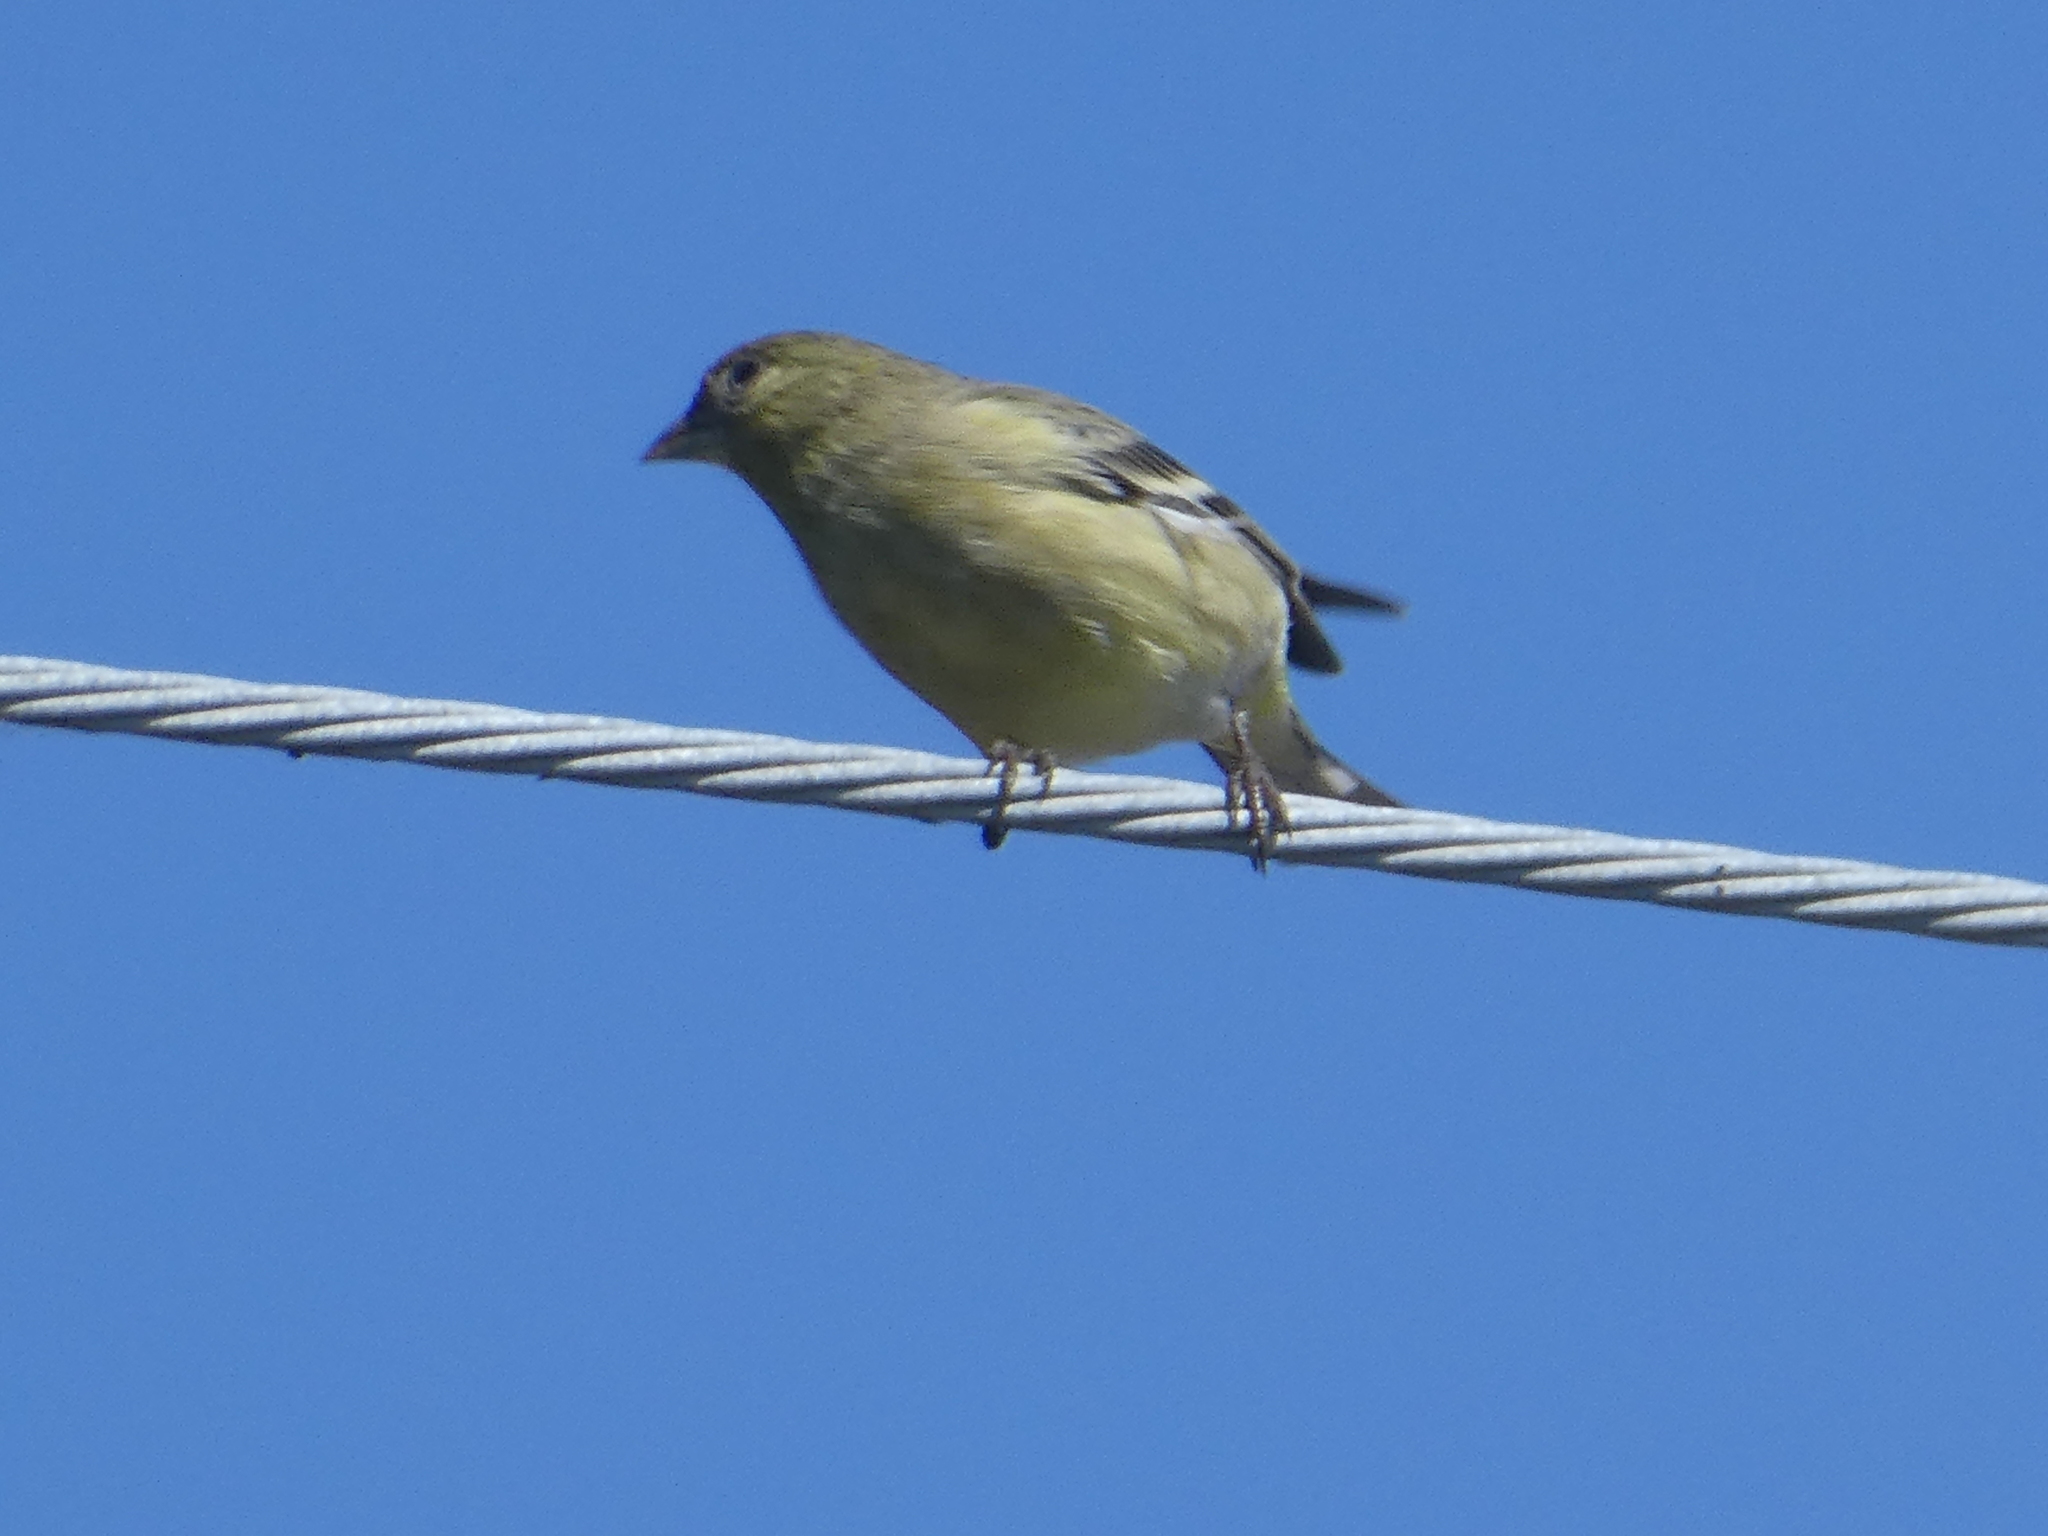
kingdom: Animalia
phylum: Chordata
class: Aves
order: Passeriformes
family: Fringillidae
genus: Spinus
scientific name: Spinus psaltria
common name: Lesser goldfinch
